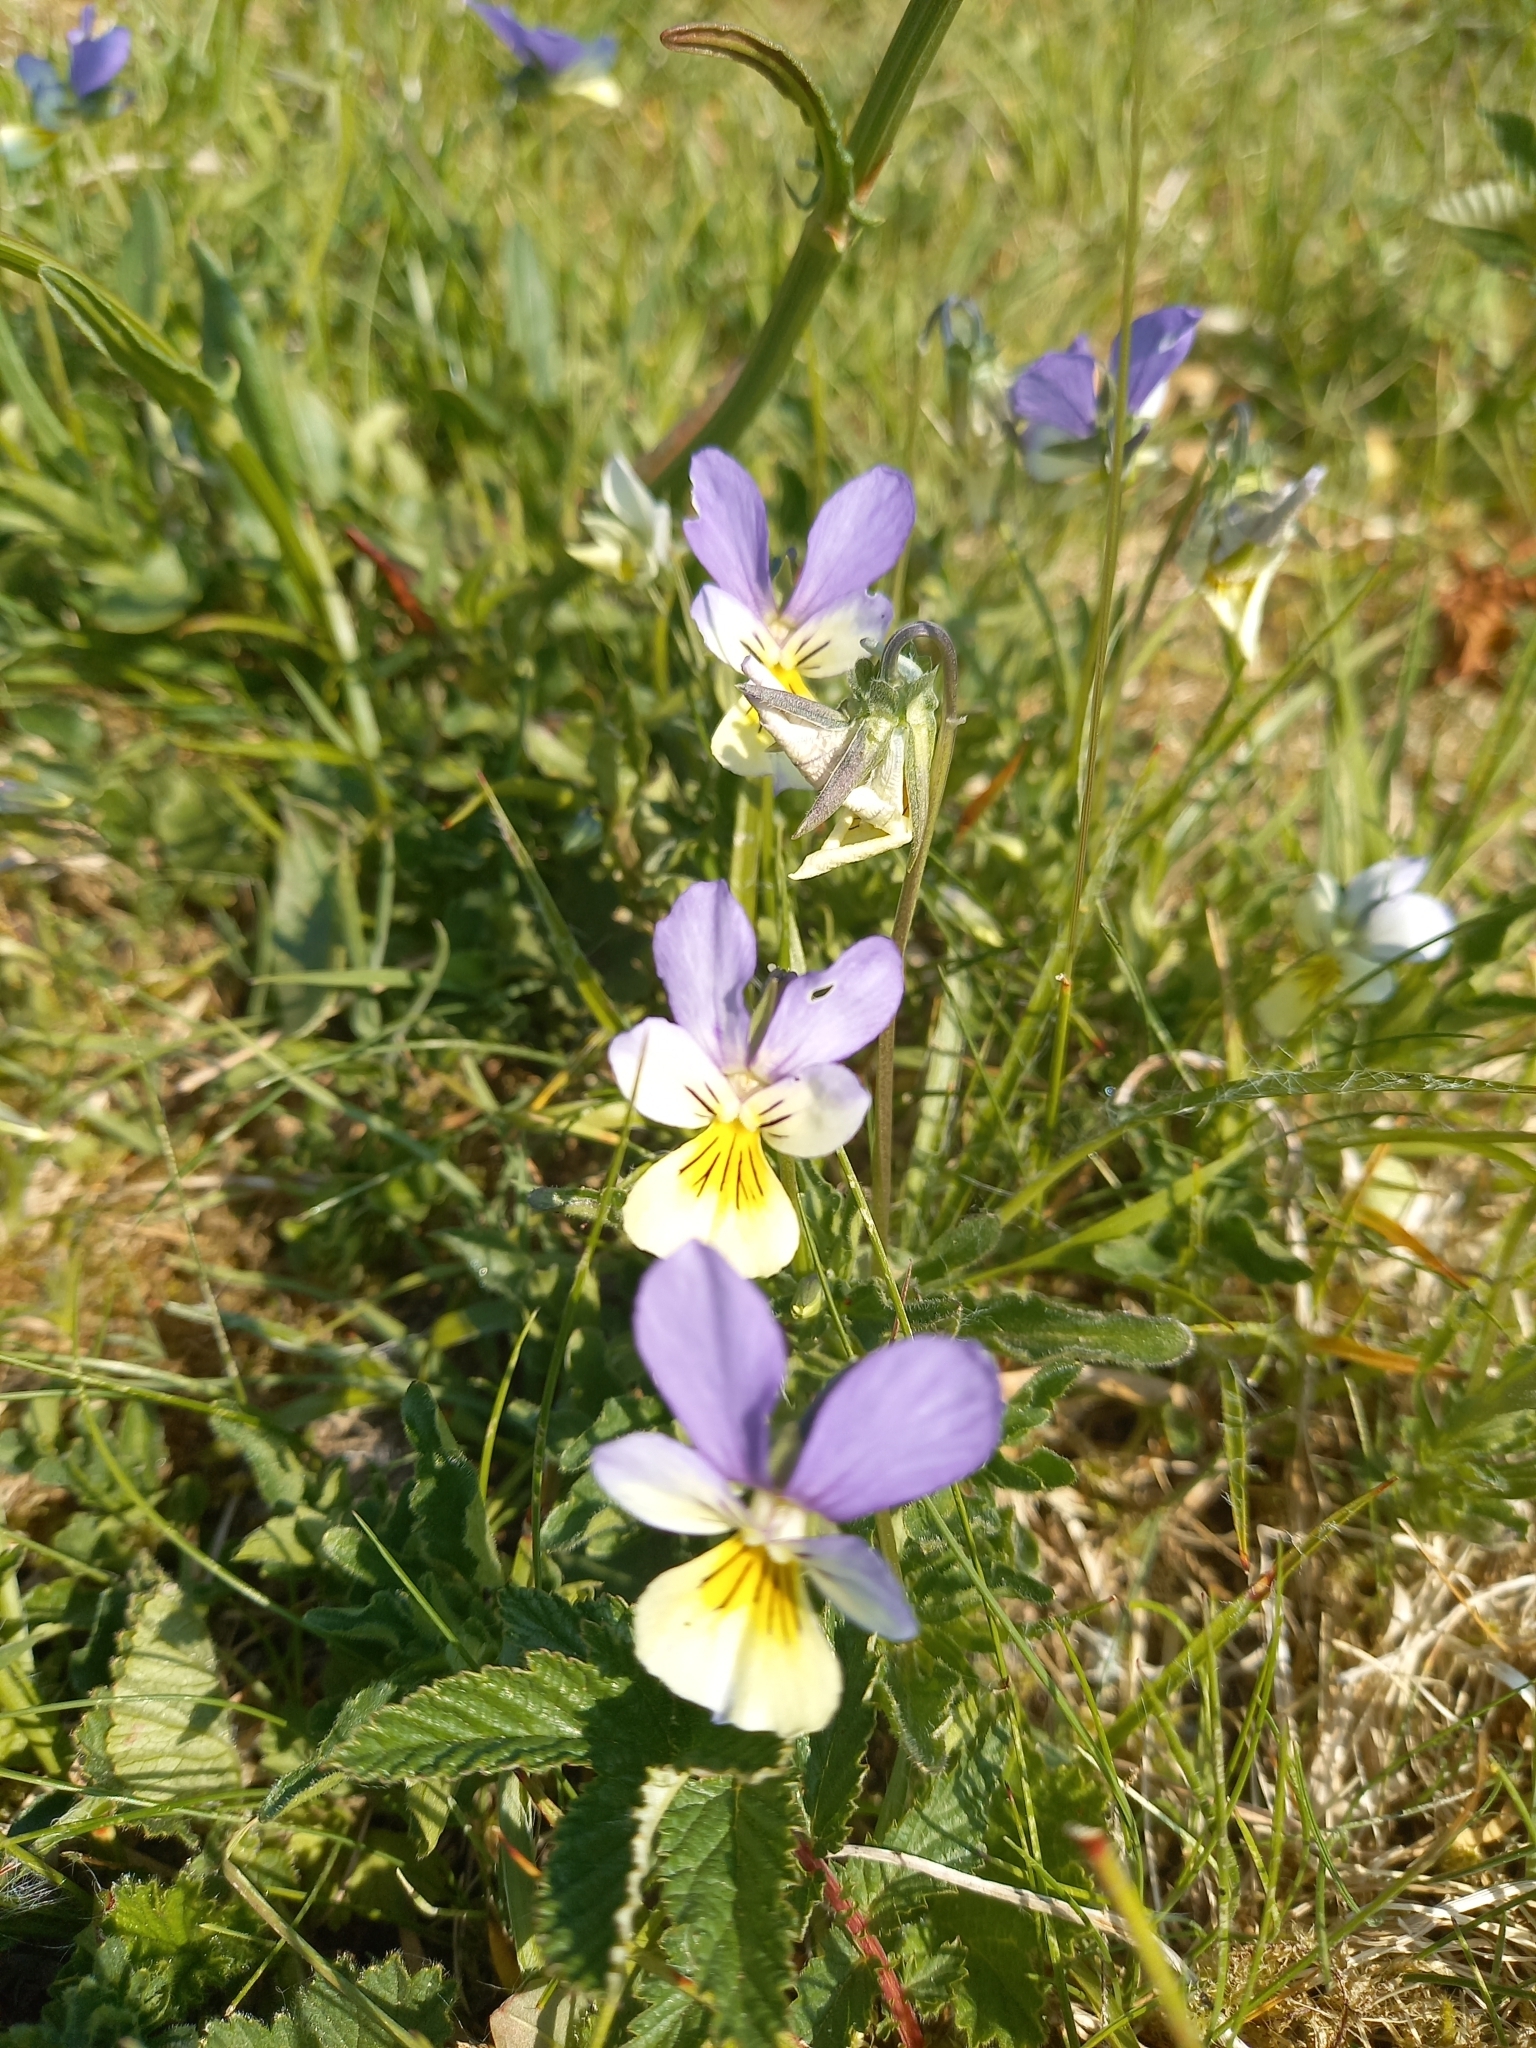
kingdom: Plantae
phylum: Tracheophyta
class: Magnoliopsida
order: Malpighiales
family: Violaceae
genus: Viola
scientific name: Viola tricolor
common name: Pansy
